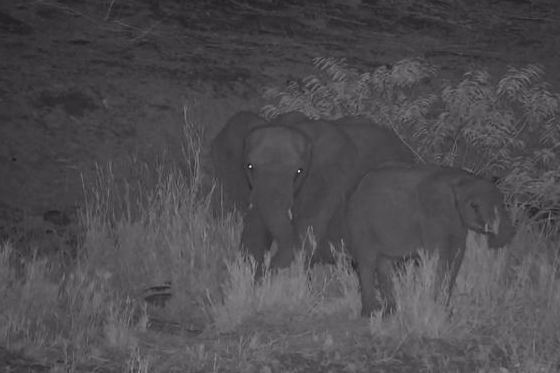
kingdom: Animalia
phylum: Chordata
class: Mammalia
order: Proboscidea
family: Elephantidae
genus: Loxodonta
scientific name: Loxodonta africana
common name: African elephant
